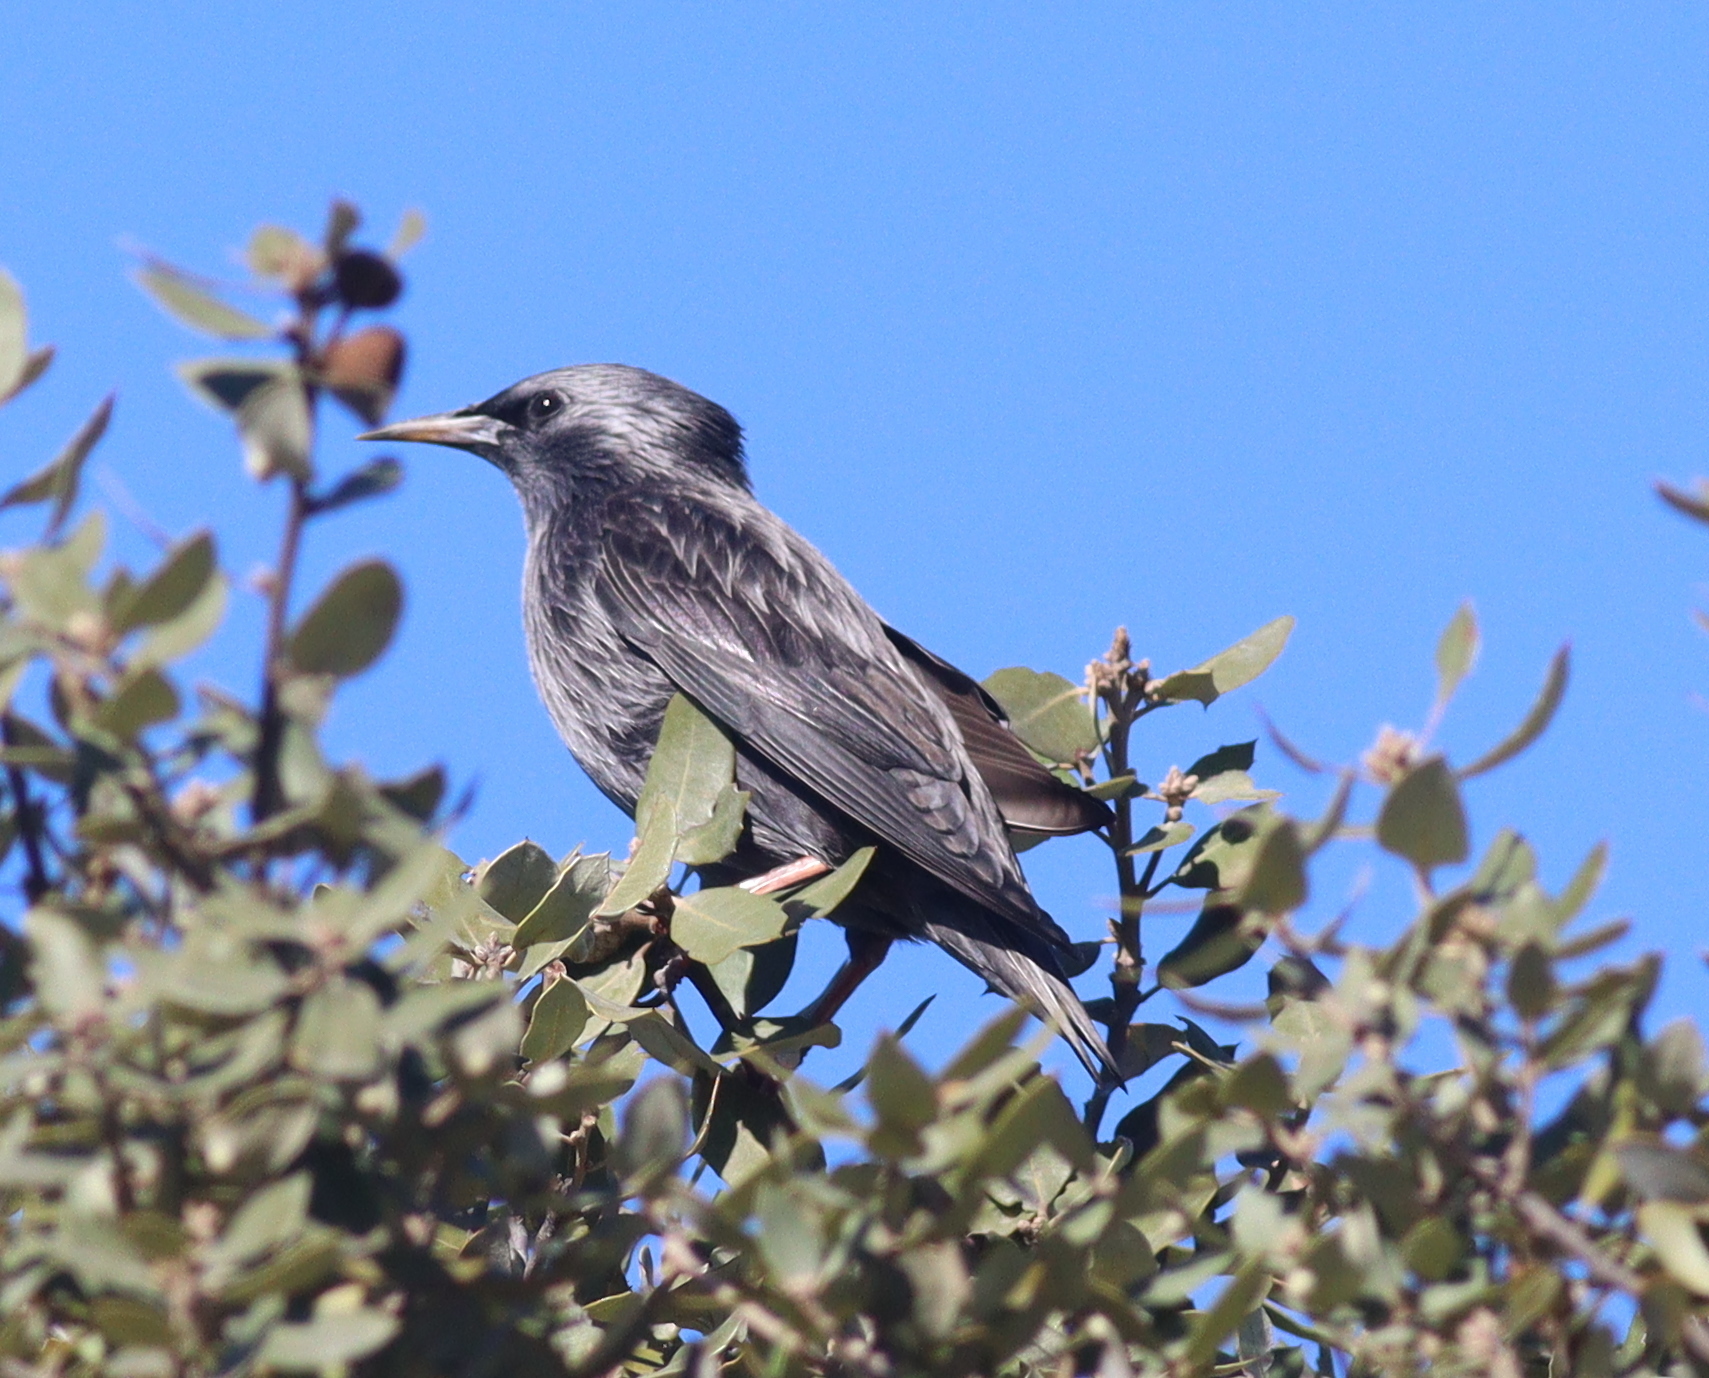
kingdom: Animalia
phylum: Chordata
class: Aves
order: Passeriformes
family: Sturnidae
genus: Sturnus
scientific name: Sturnus unicolor
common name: Spotless starling
